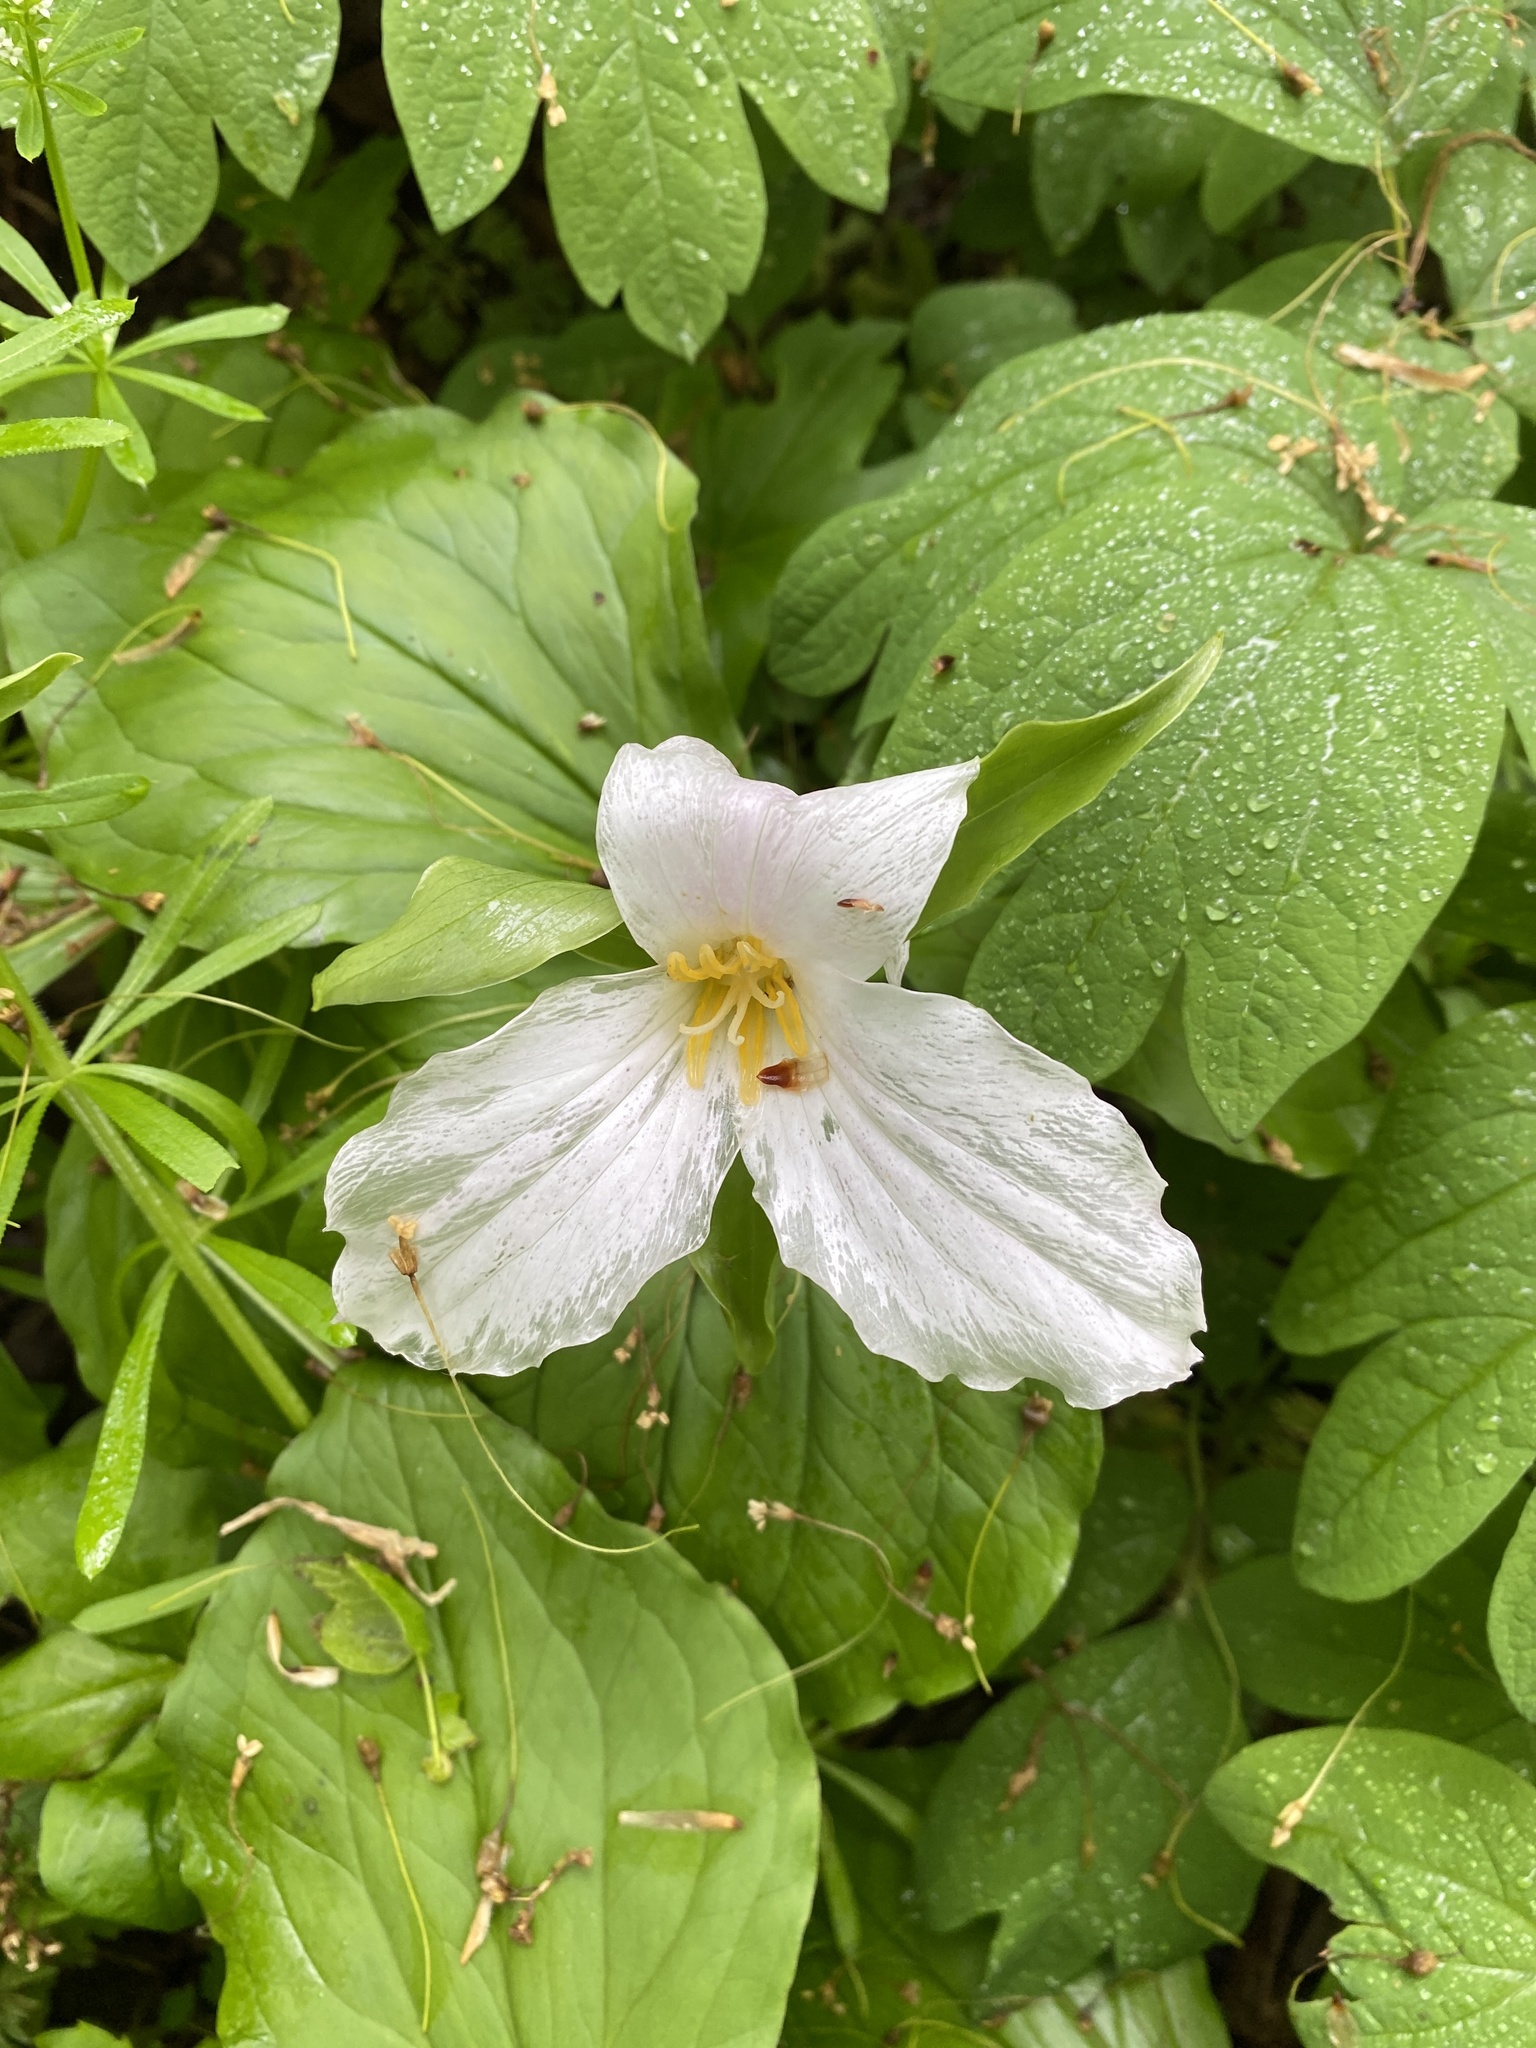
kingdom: Plantae
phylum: Tracheophyta
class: Liliopsida
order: Liliales
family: Melanthiaceae
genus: Trillium
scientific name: Trillium grandiflorum
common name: Great white trillium
